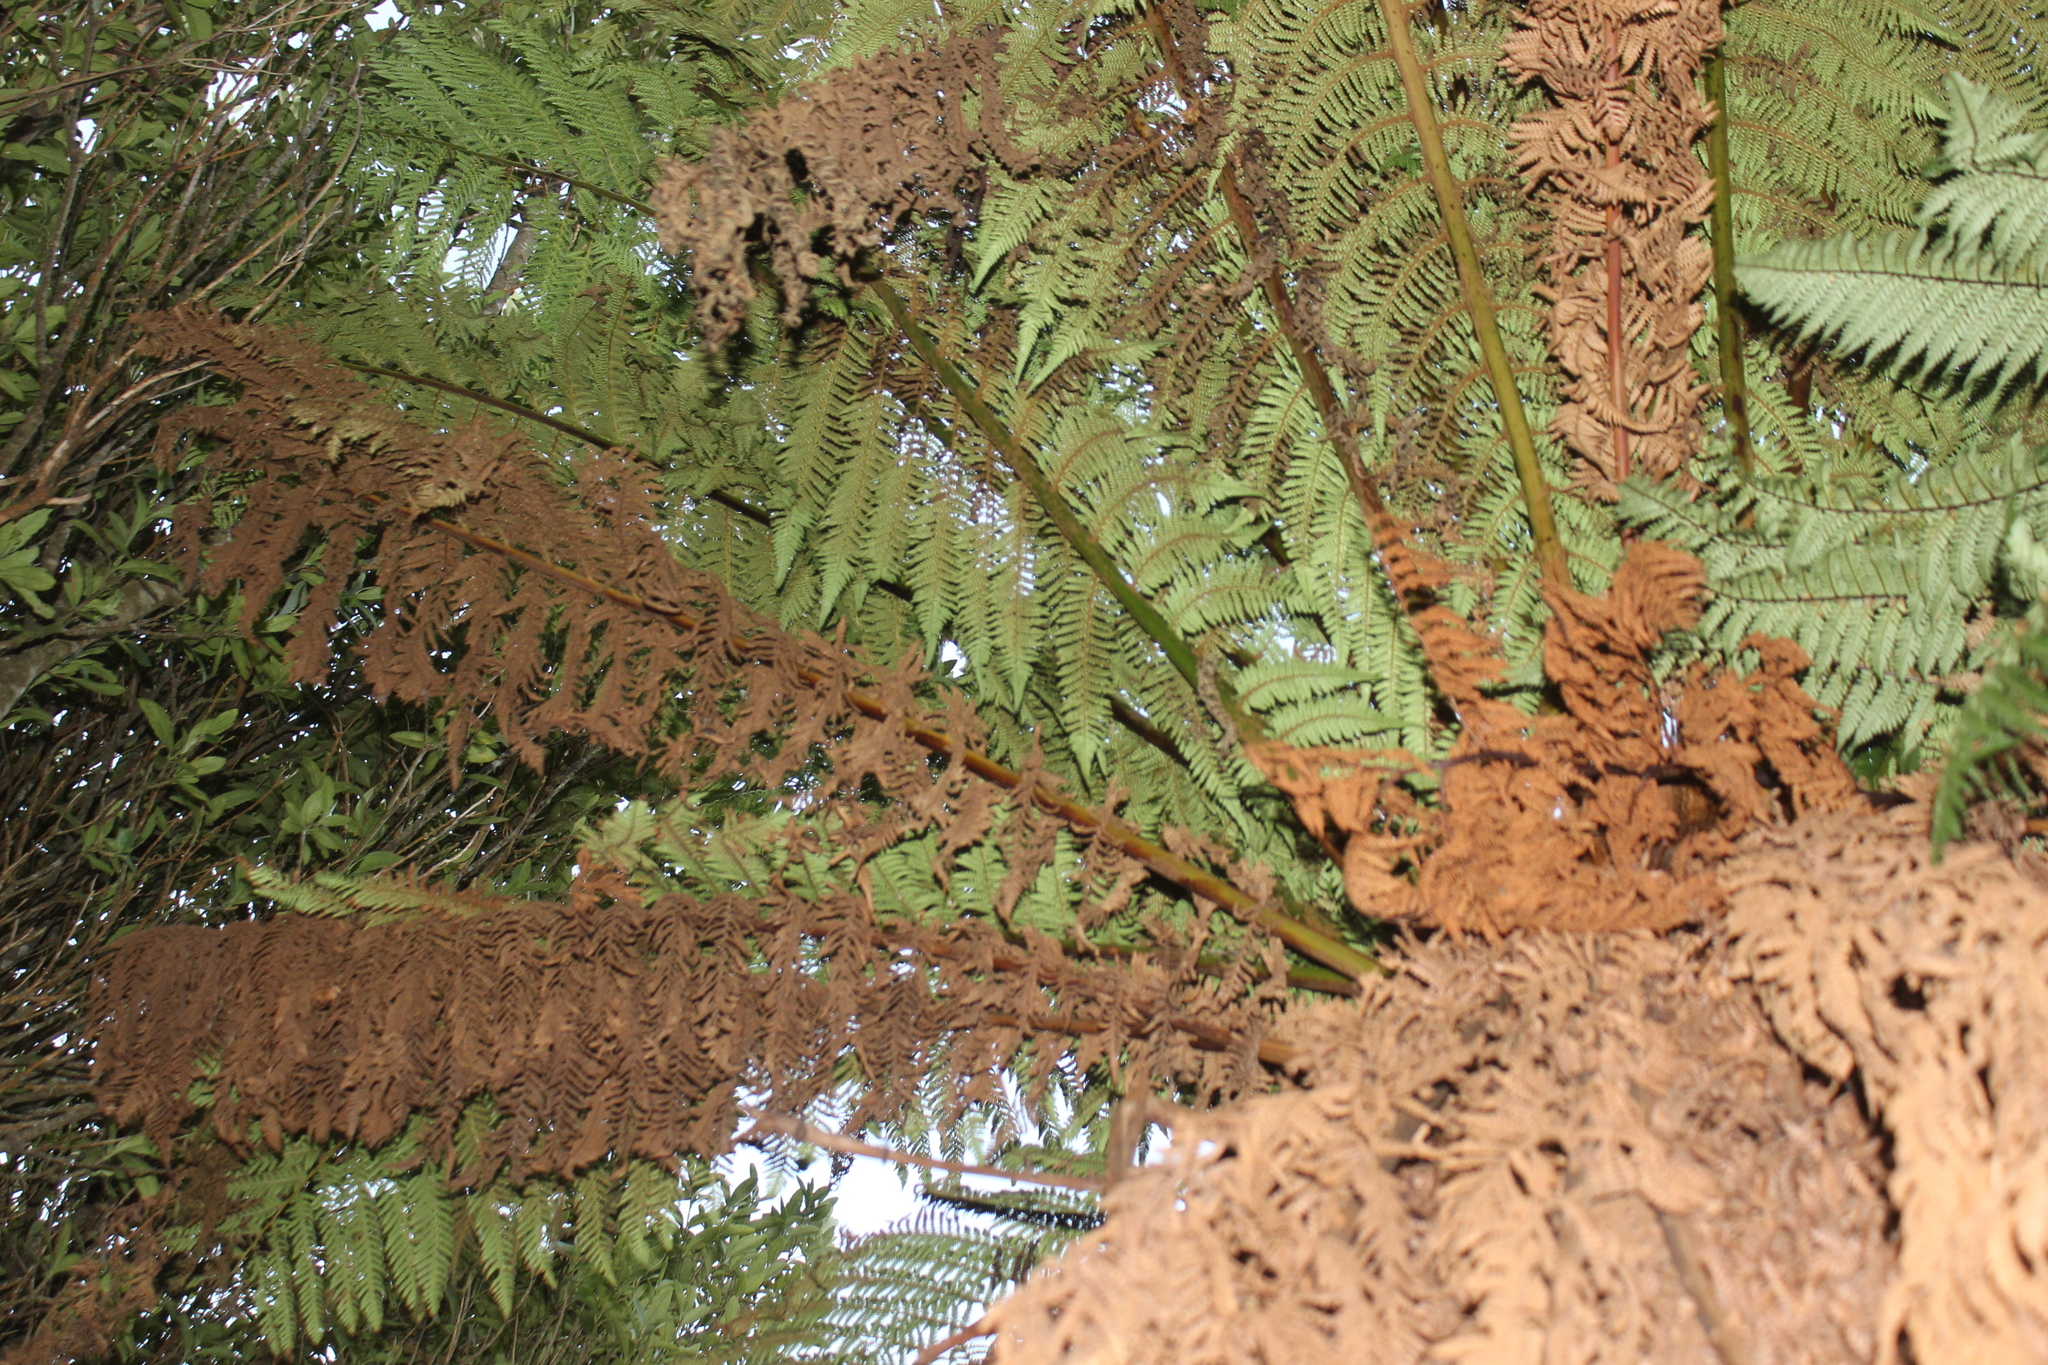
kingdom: Plantae
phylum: Tracheophyta
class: Polypodiopsida
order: Cyatheales
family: Dicksoniaceae
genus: Dicksonia
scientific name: Dicksonia fibrosa
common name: Golden tree fern
